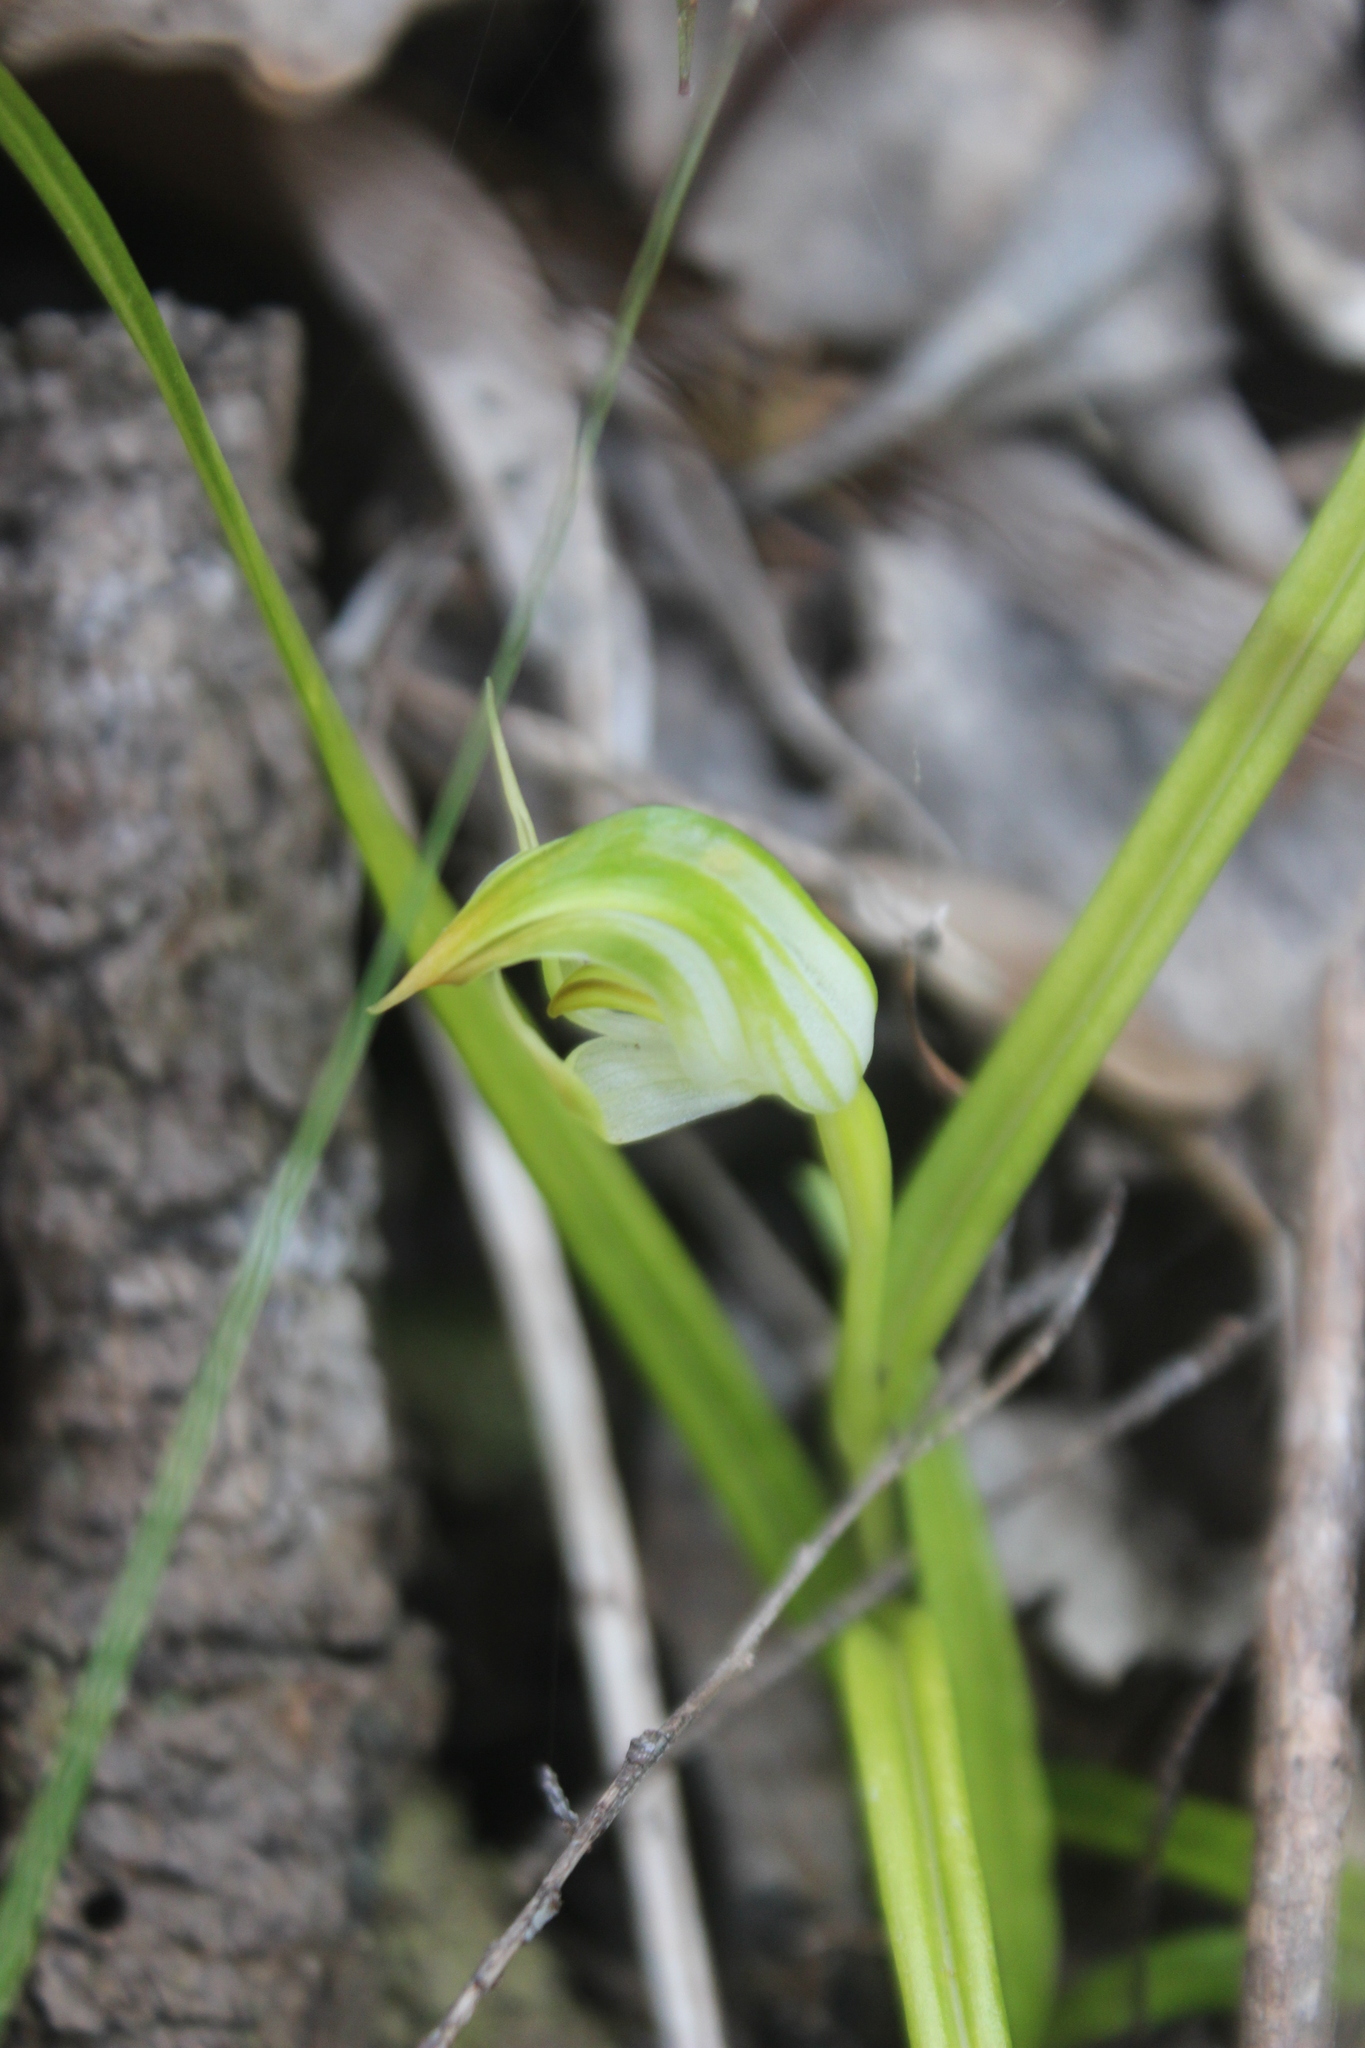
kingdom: Plantae
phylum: Tracheophyta
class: Liliopsida
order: Asparagales
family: Orchidaceae
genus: Pterostylis
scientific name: Pterostylis graminea
